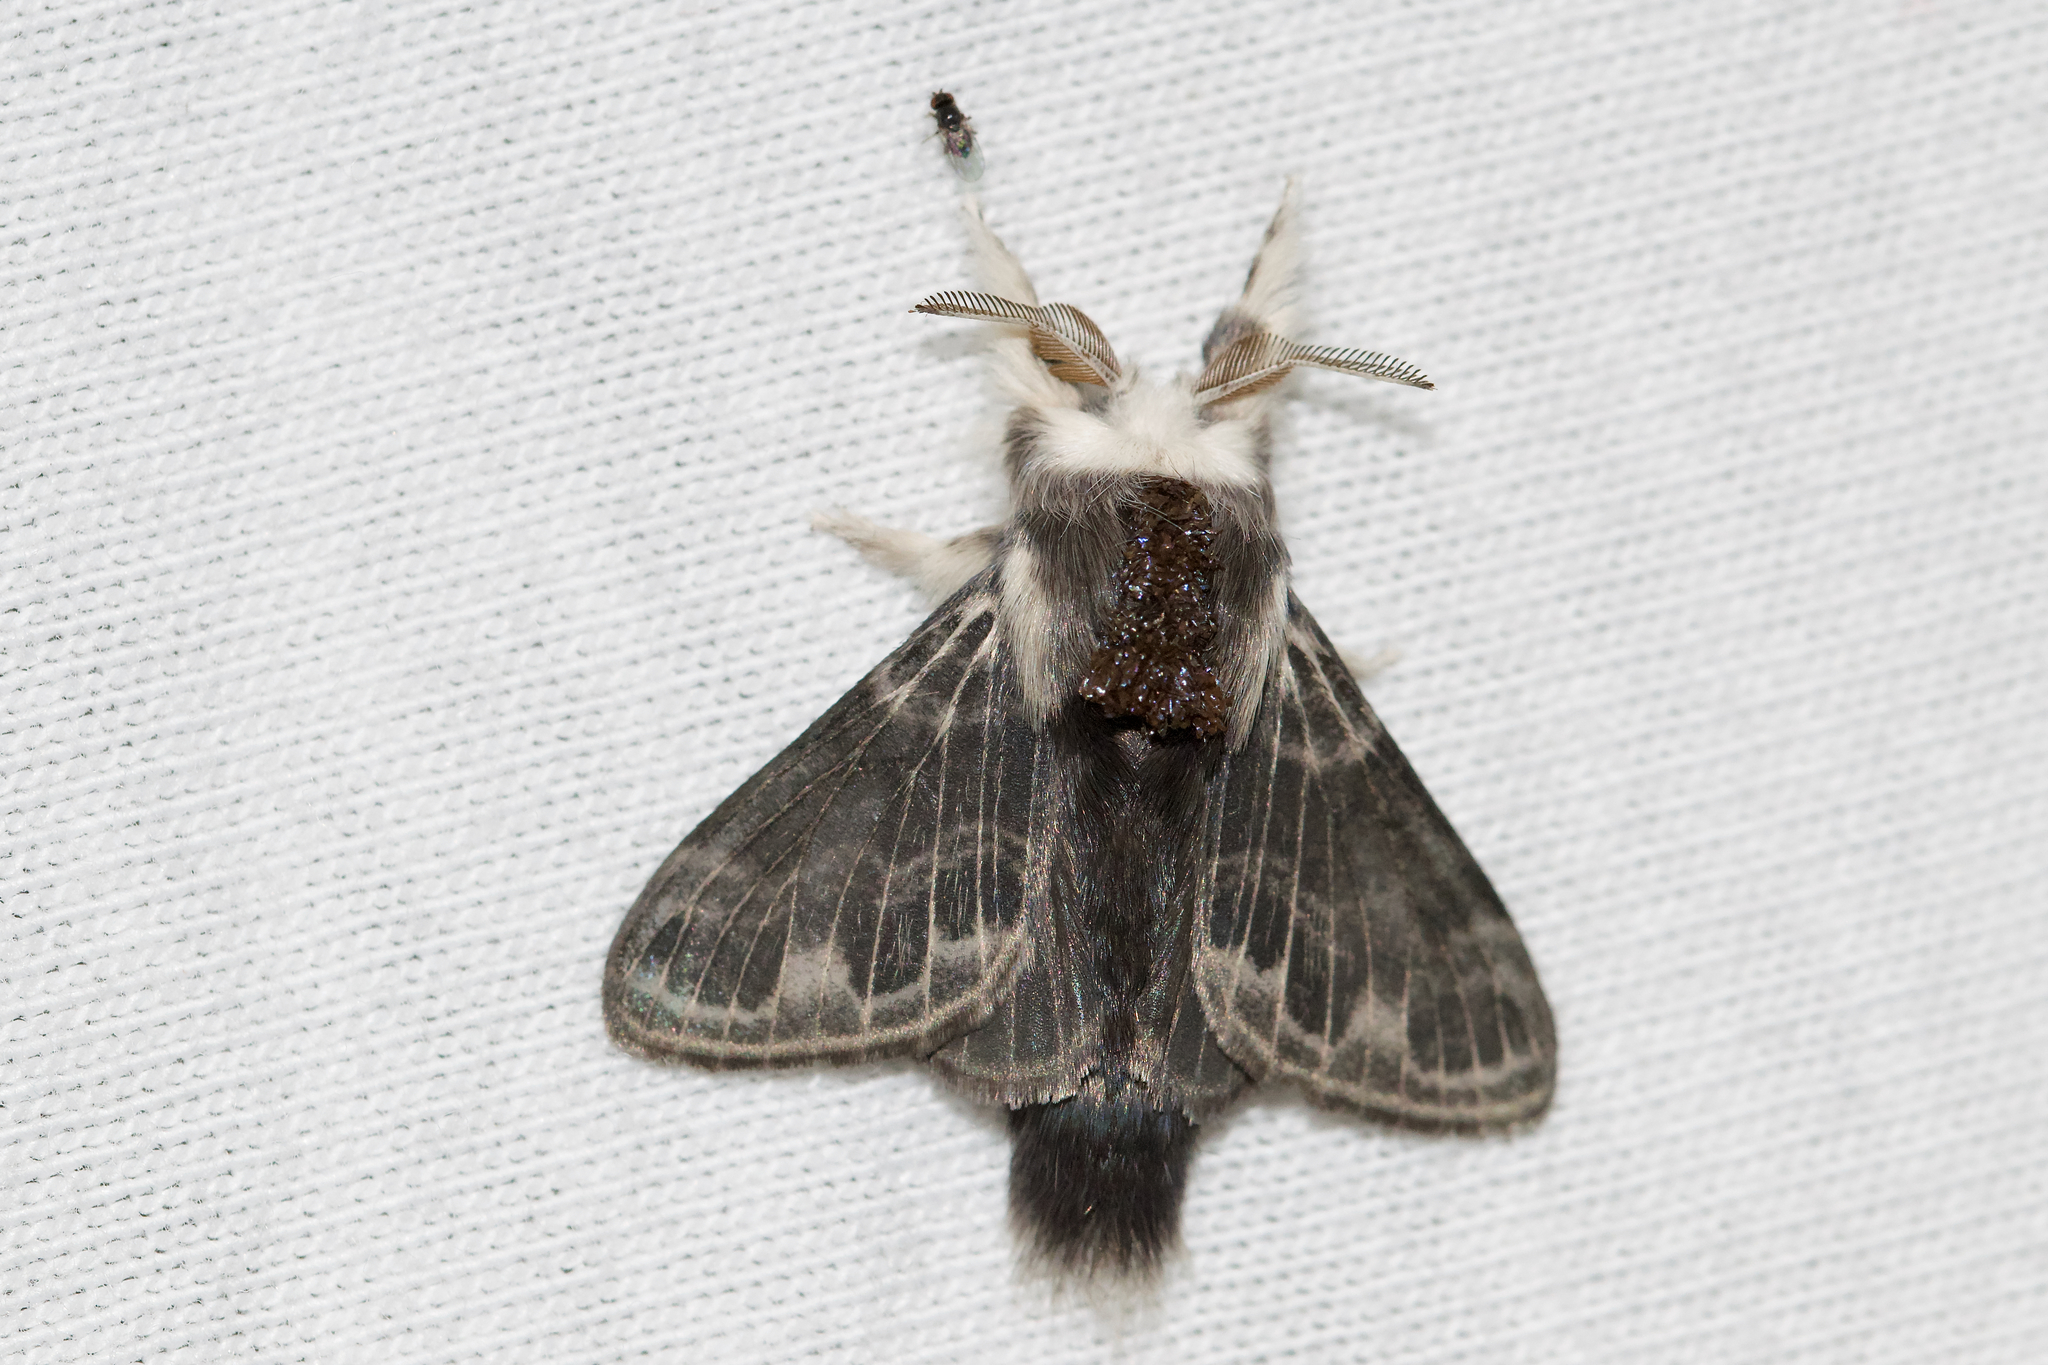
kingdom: Animalia
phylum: Arthropoda
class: Insecta
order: Lepidoptera
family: Lasiocampidae
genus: Tolype
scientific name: Tolype laricis
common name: Larch tolype moth
